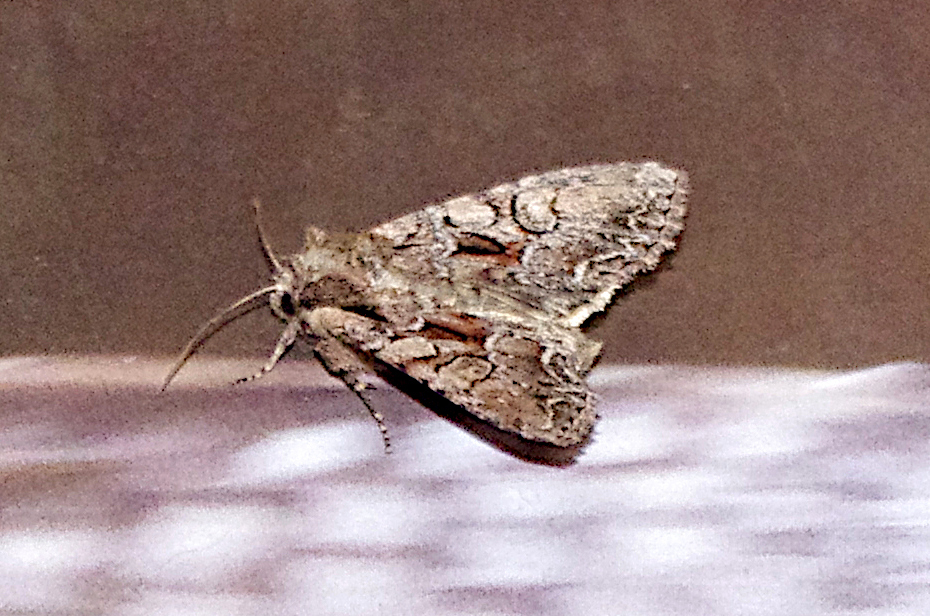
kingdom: Animalia
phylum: Arthropoda
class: Insecta
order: Lepidoptera
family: Noctuidae
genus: Lacanobia
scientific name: Lacanobia thalassina
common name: Pale-shouldered brocade
